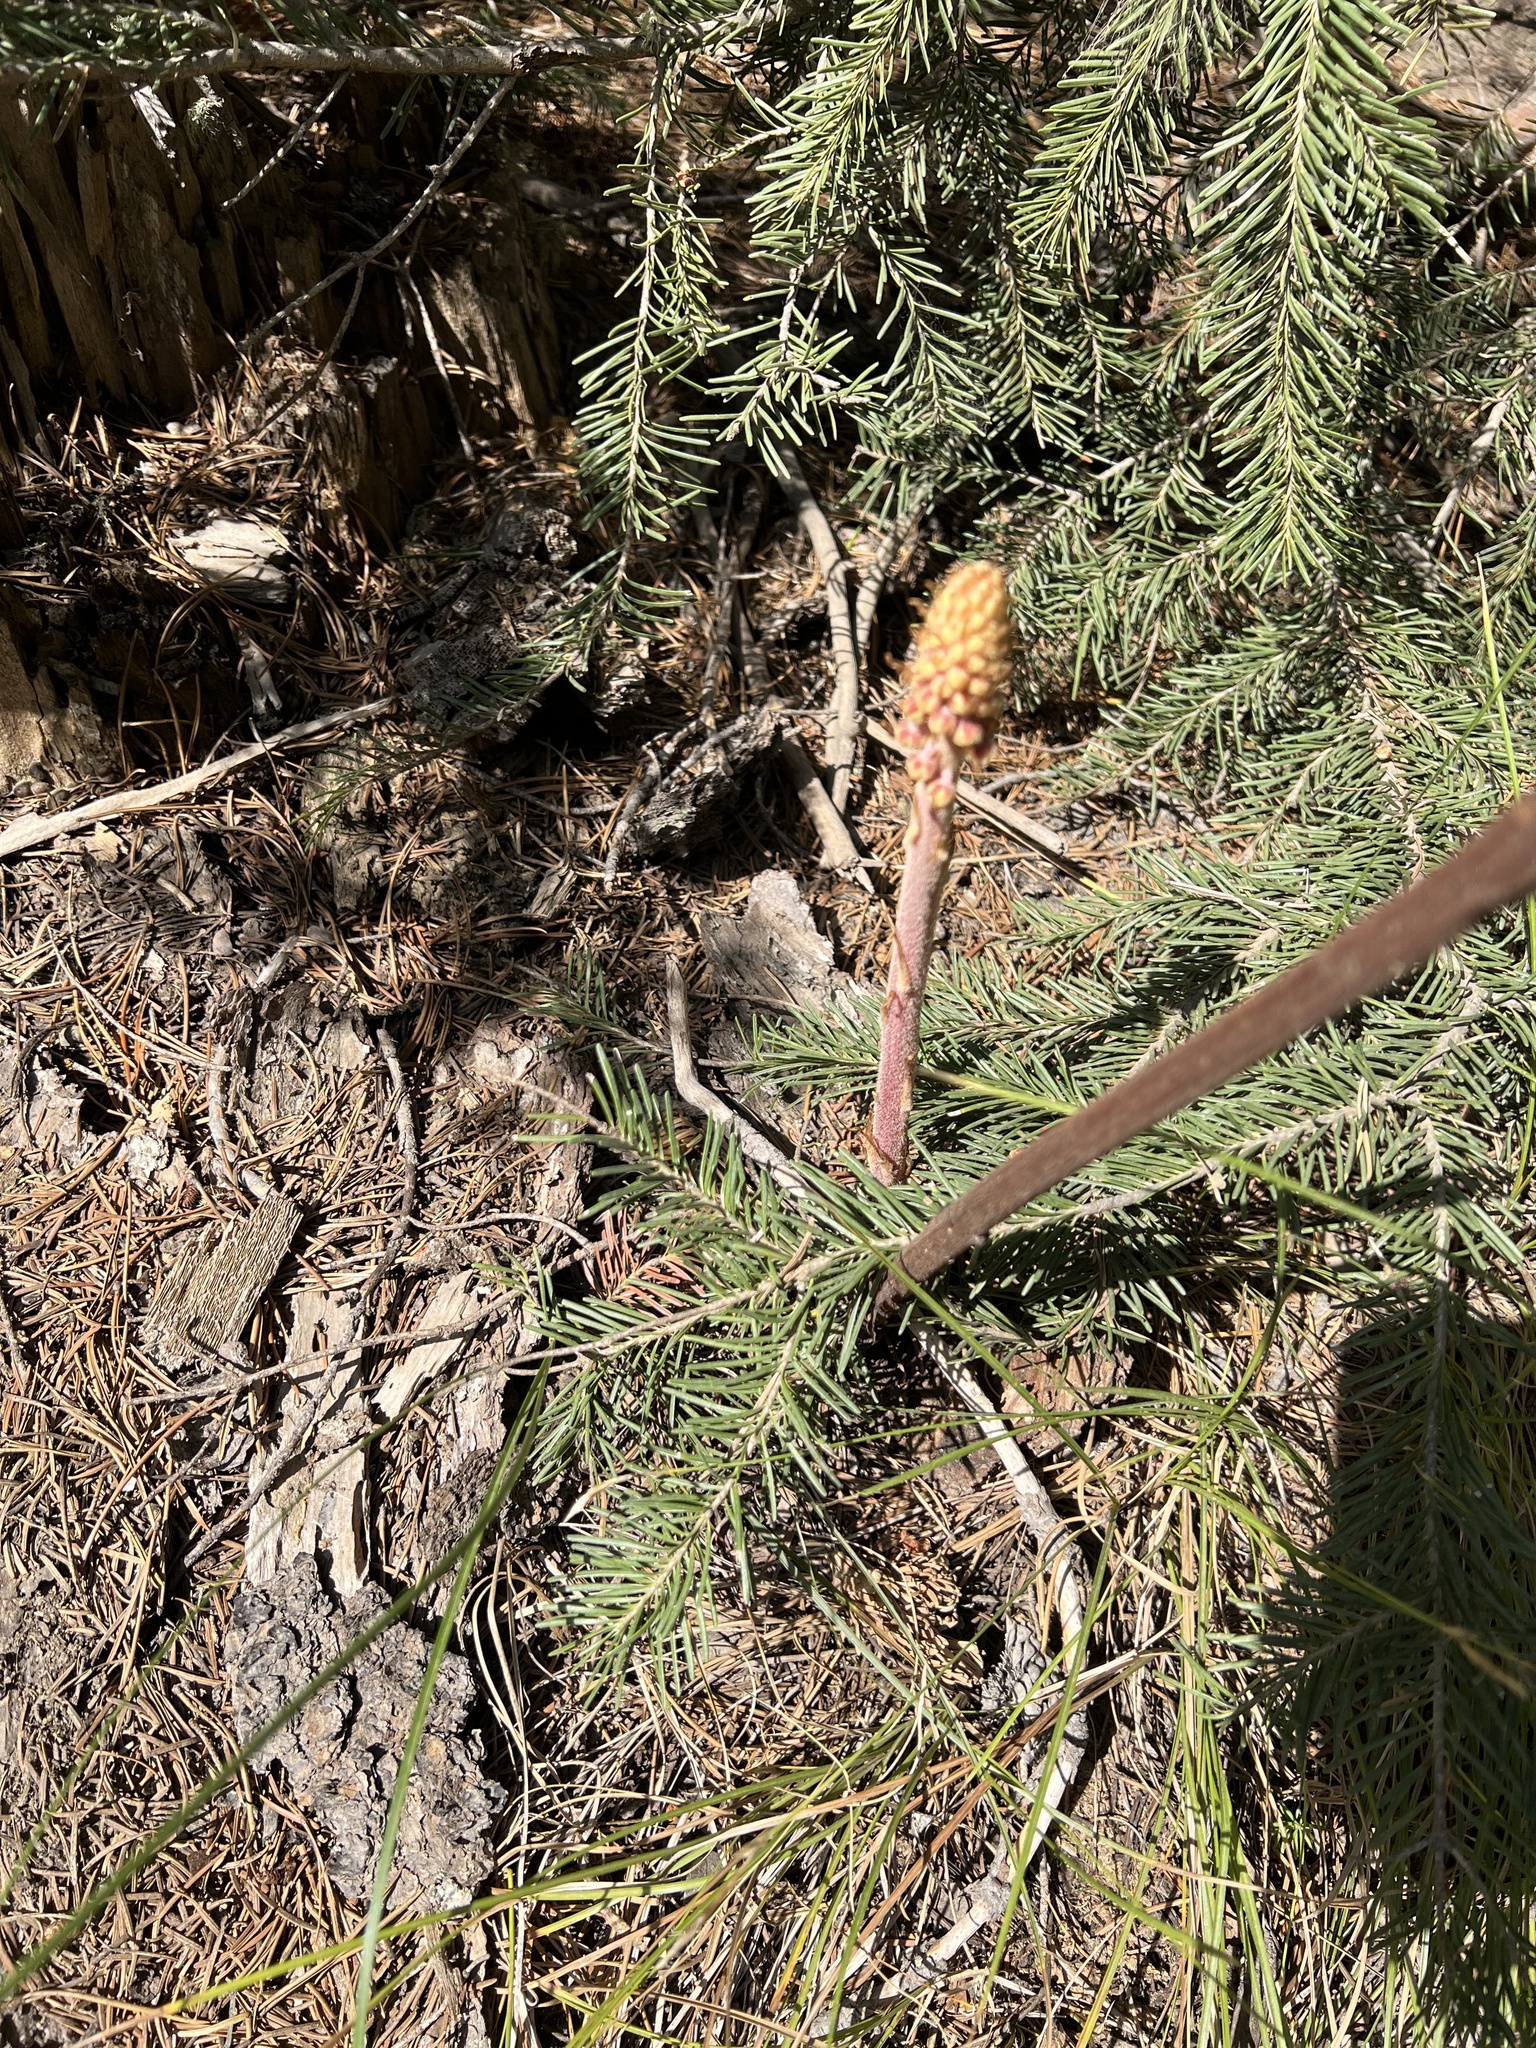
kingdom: Plantae
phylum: Tracheophyta
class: Magnoliopsida
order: Ericales
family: Ericaceae
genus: Pterospora
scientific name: Pterospora andromedea
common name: Giant bird's-nest
